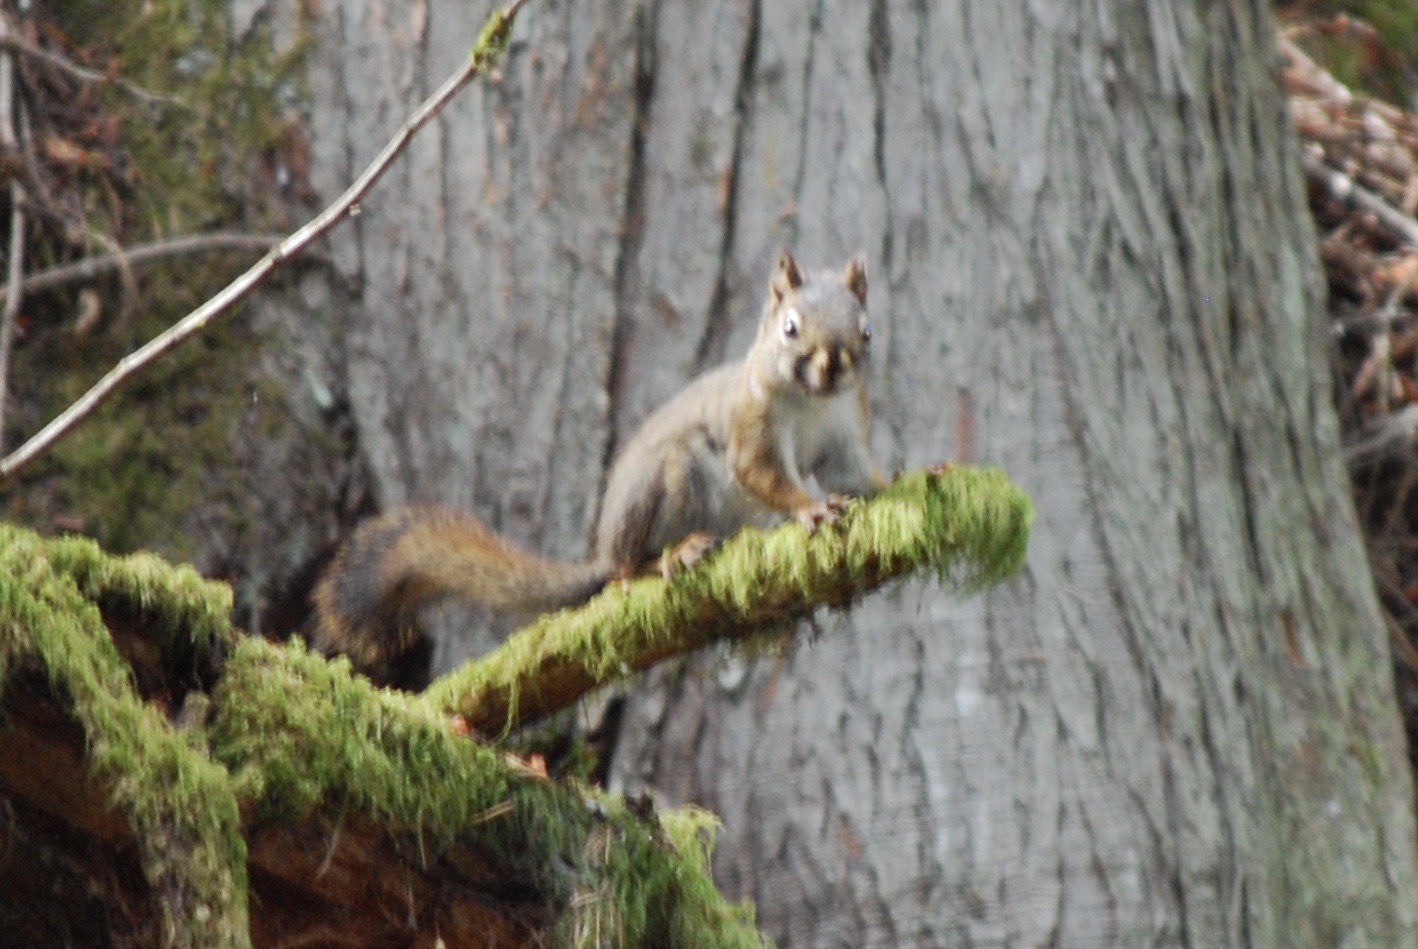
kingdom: Animalia
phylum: Chordata
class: Mammalia
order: Rodentia
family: Sciuridae
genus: Tamiasciurus
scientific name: Tamiasciurus hudsonicus
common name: Red squirrel
